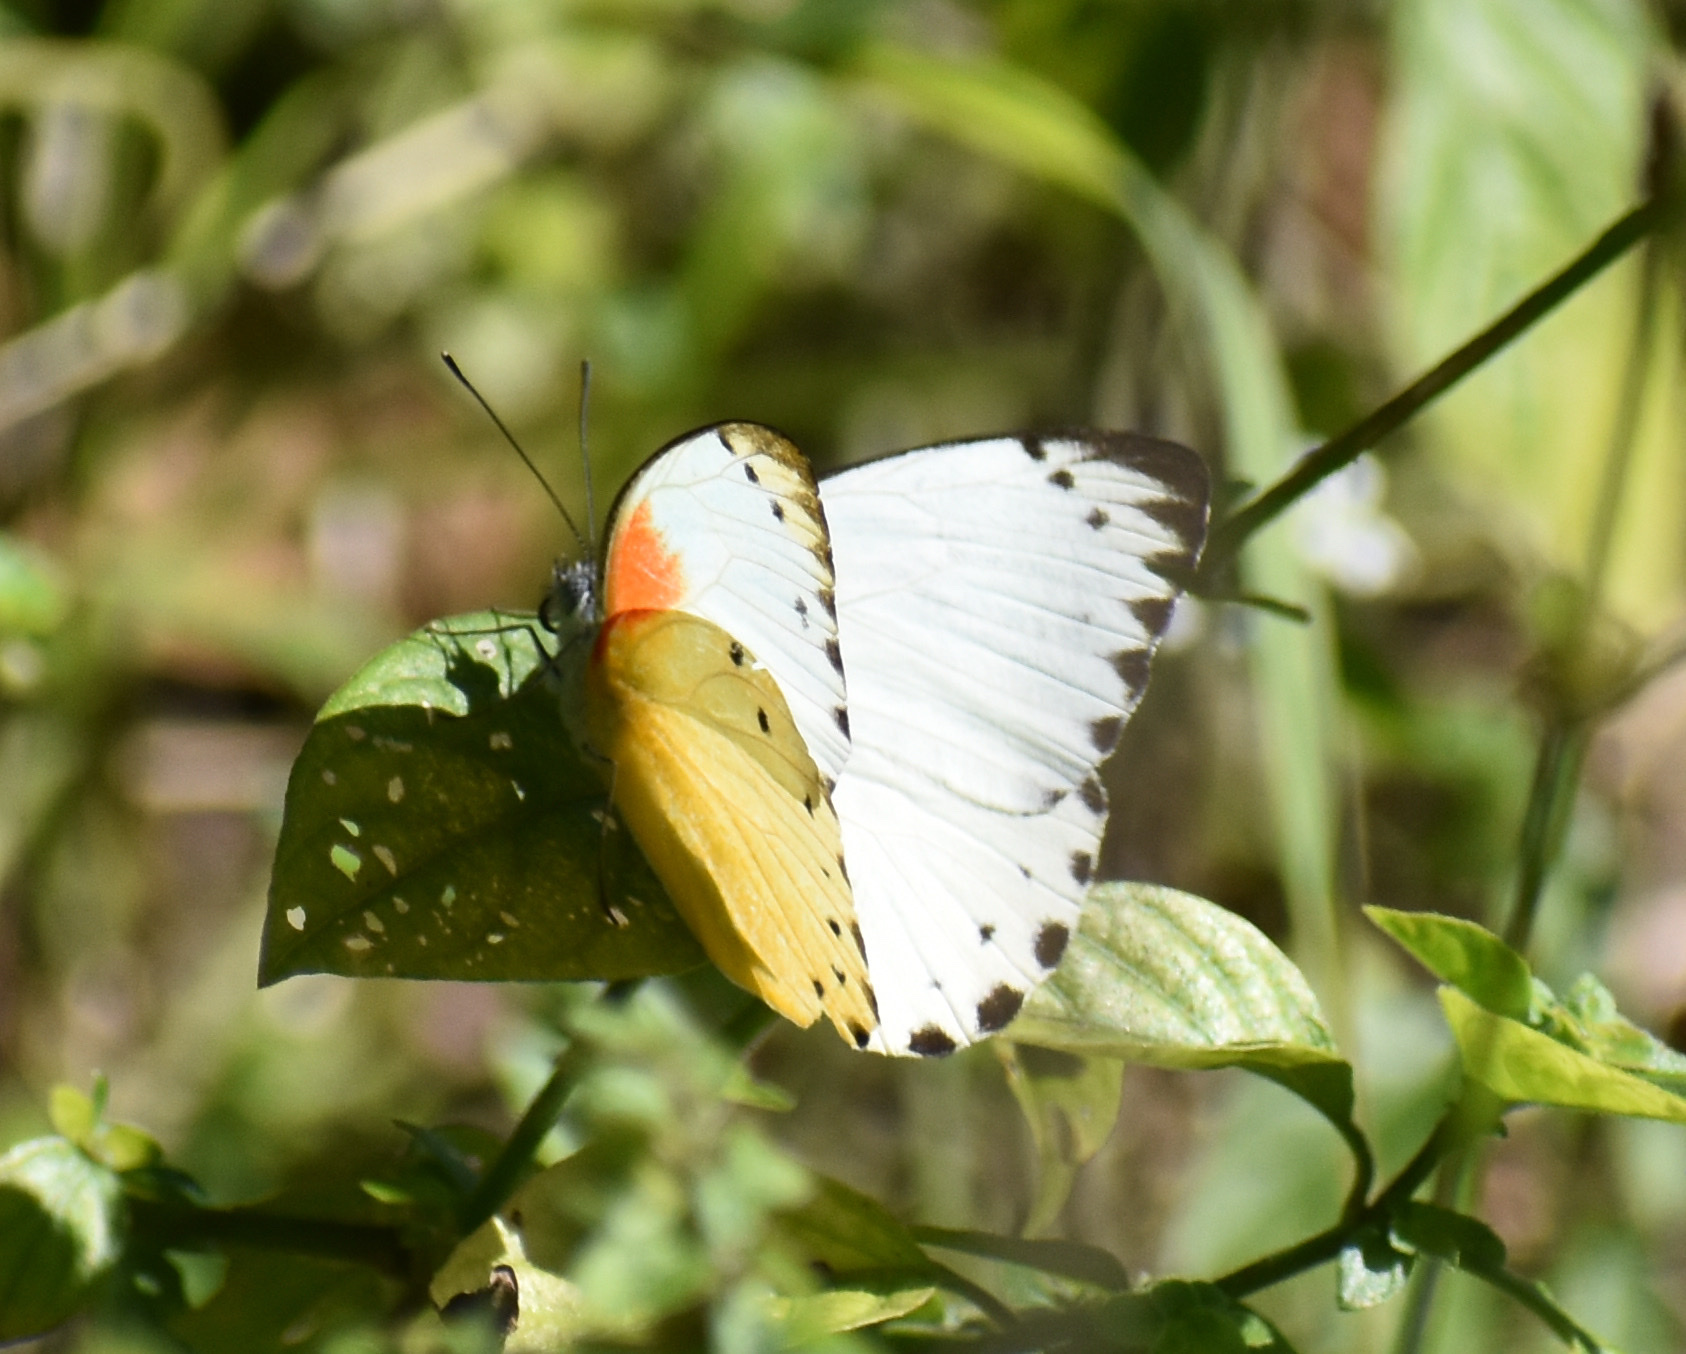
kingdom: Animalia
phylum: Arthropoda
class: Insecta
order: Lepidoptera
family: Pieridae
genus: Belenois
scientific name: Belenois thysa
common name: False dotted border
